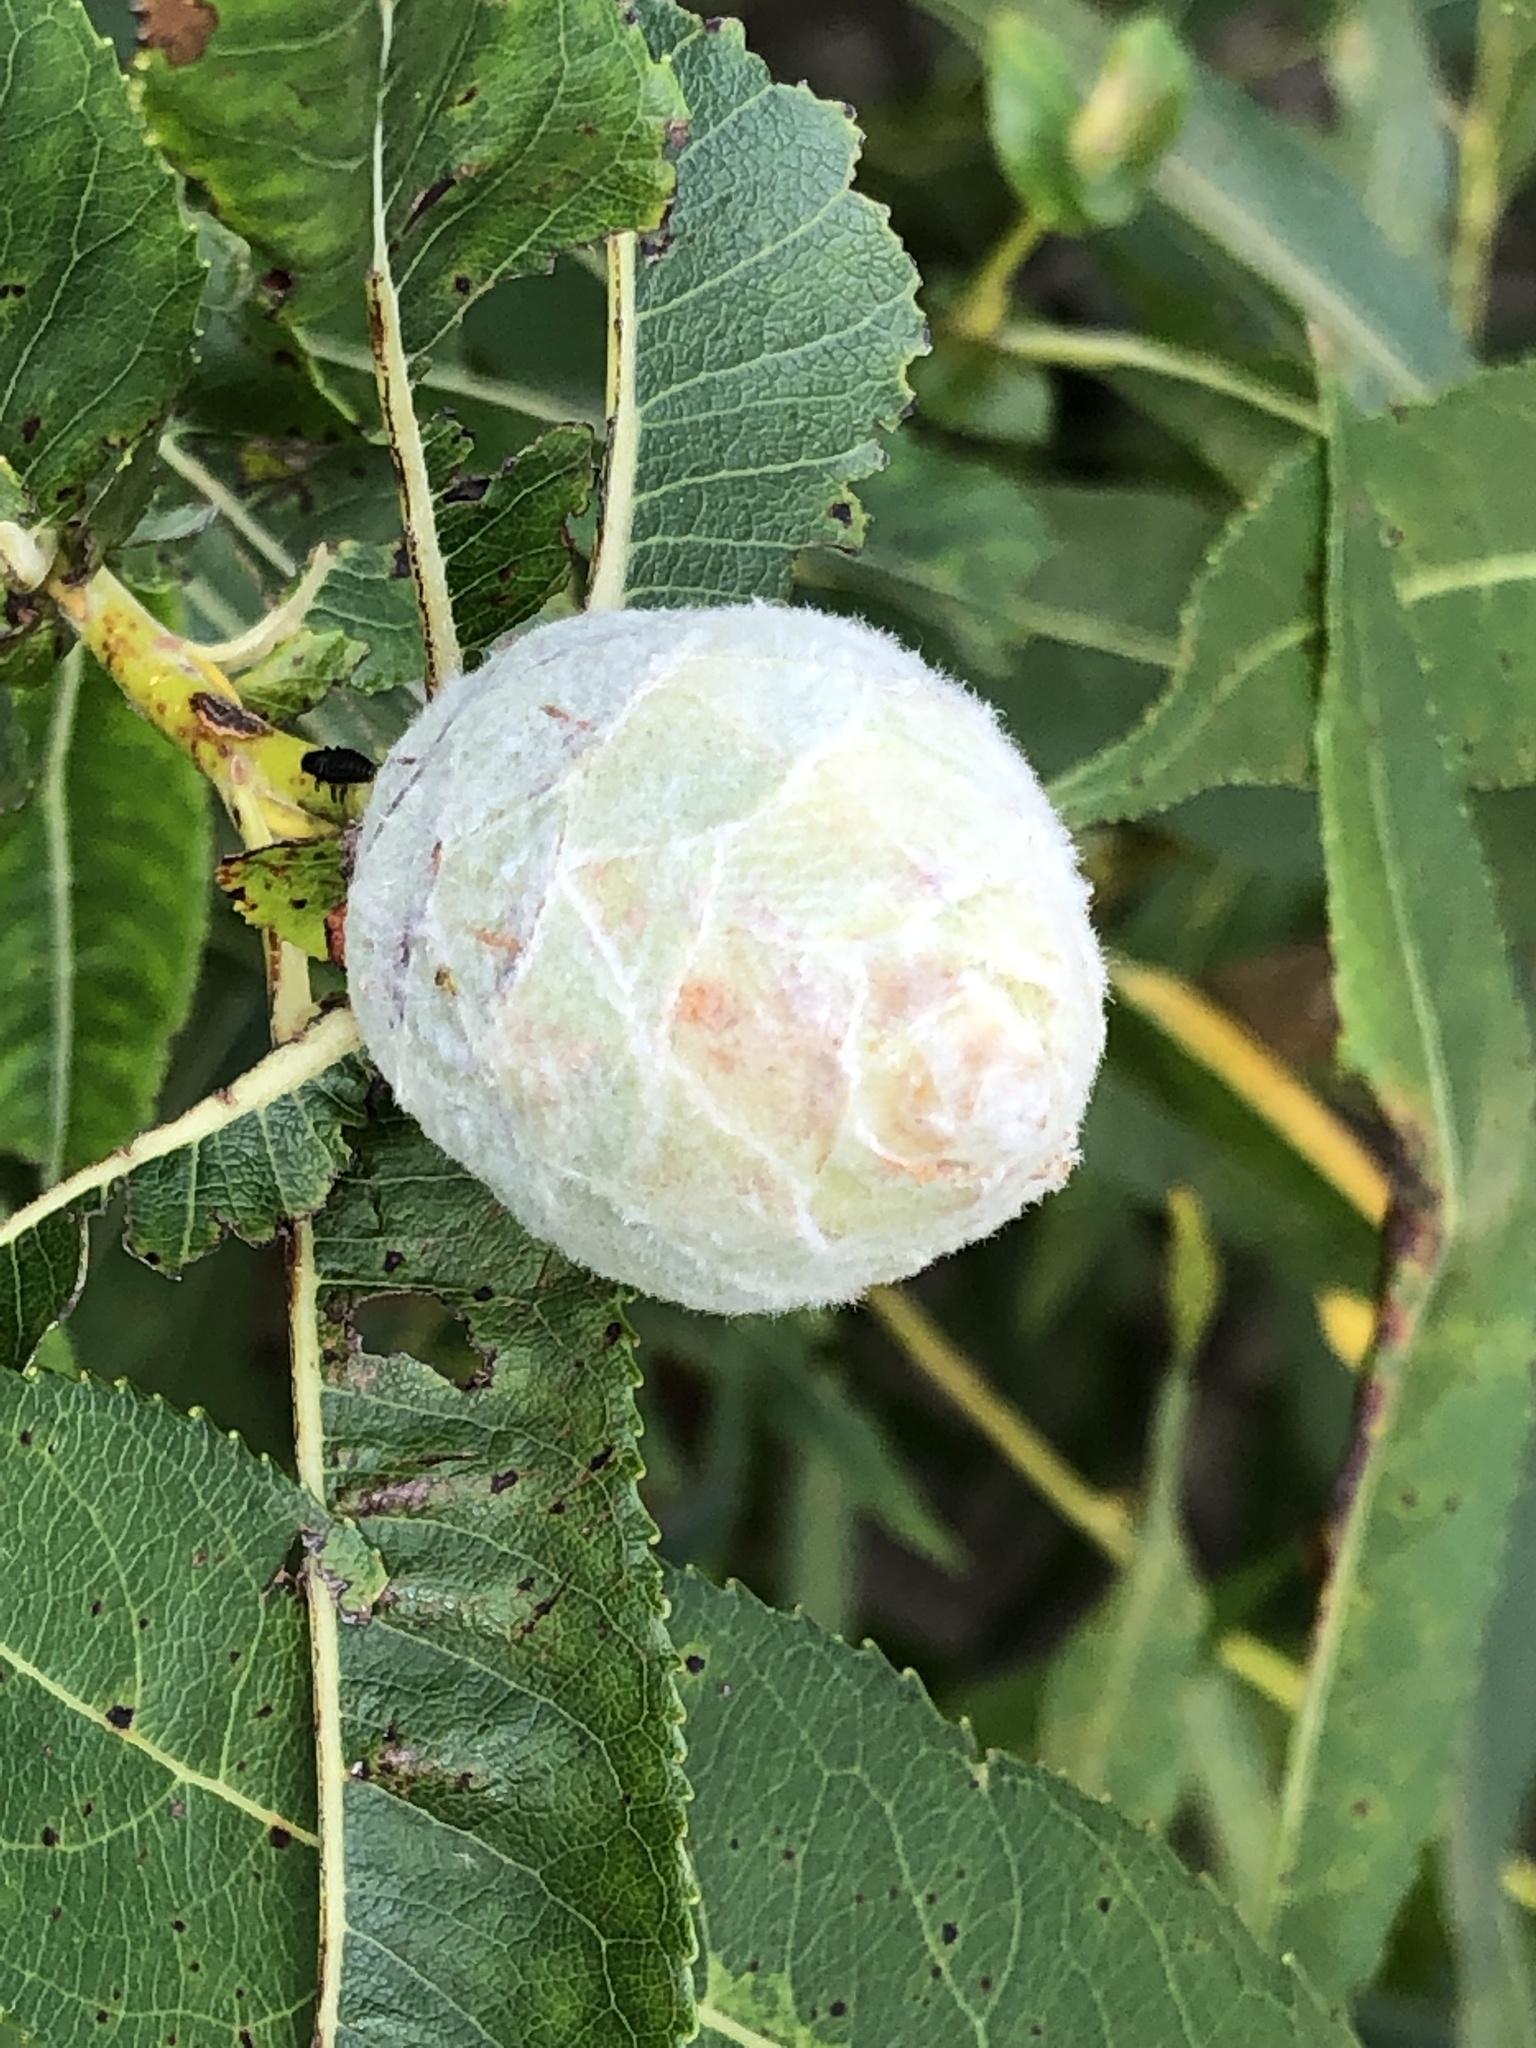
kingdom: Animalia
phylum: Arthropoda
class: Insecta
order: Diptera
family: Cecidomyiidae
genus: Rabdophaga
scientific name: Rabdophaga strobiloides
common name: Willow pinecone gall midge
